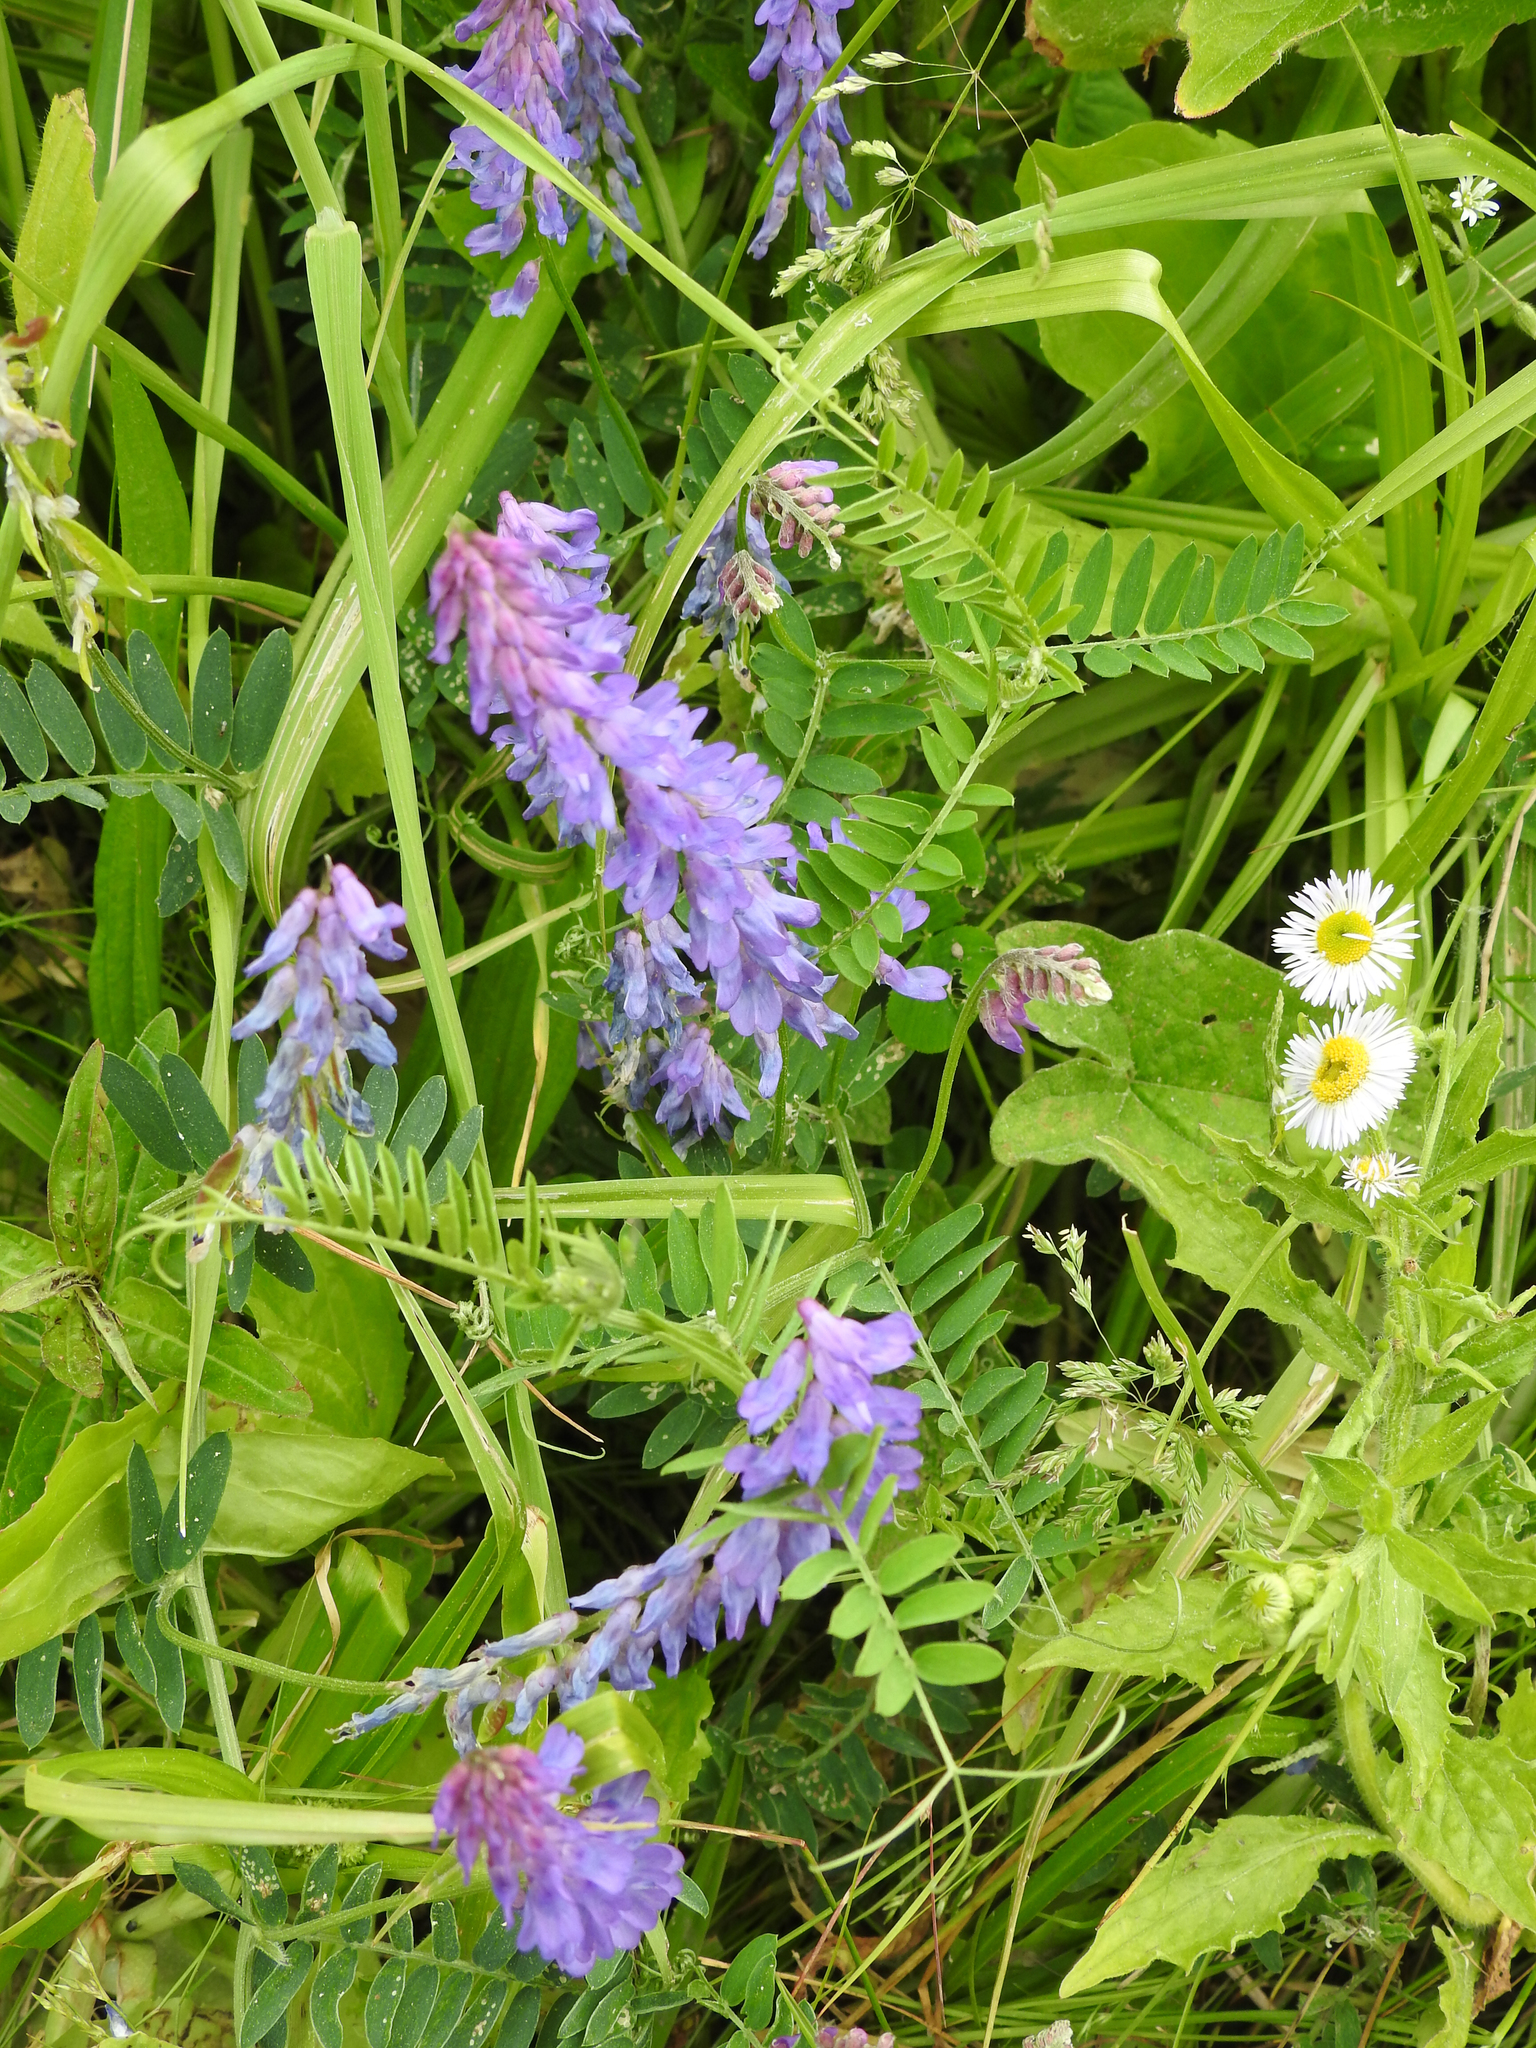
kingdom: Plantae
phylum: Tracheophyta
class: Magnoliopsida
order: Fabales
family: Fabaceae
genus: Vicia
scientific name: Vicia cracca
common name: Bird vetch
